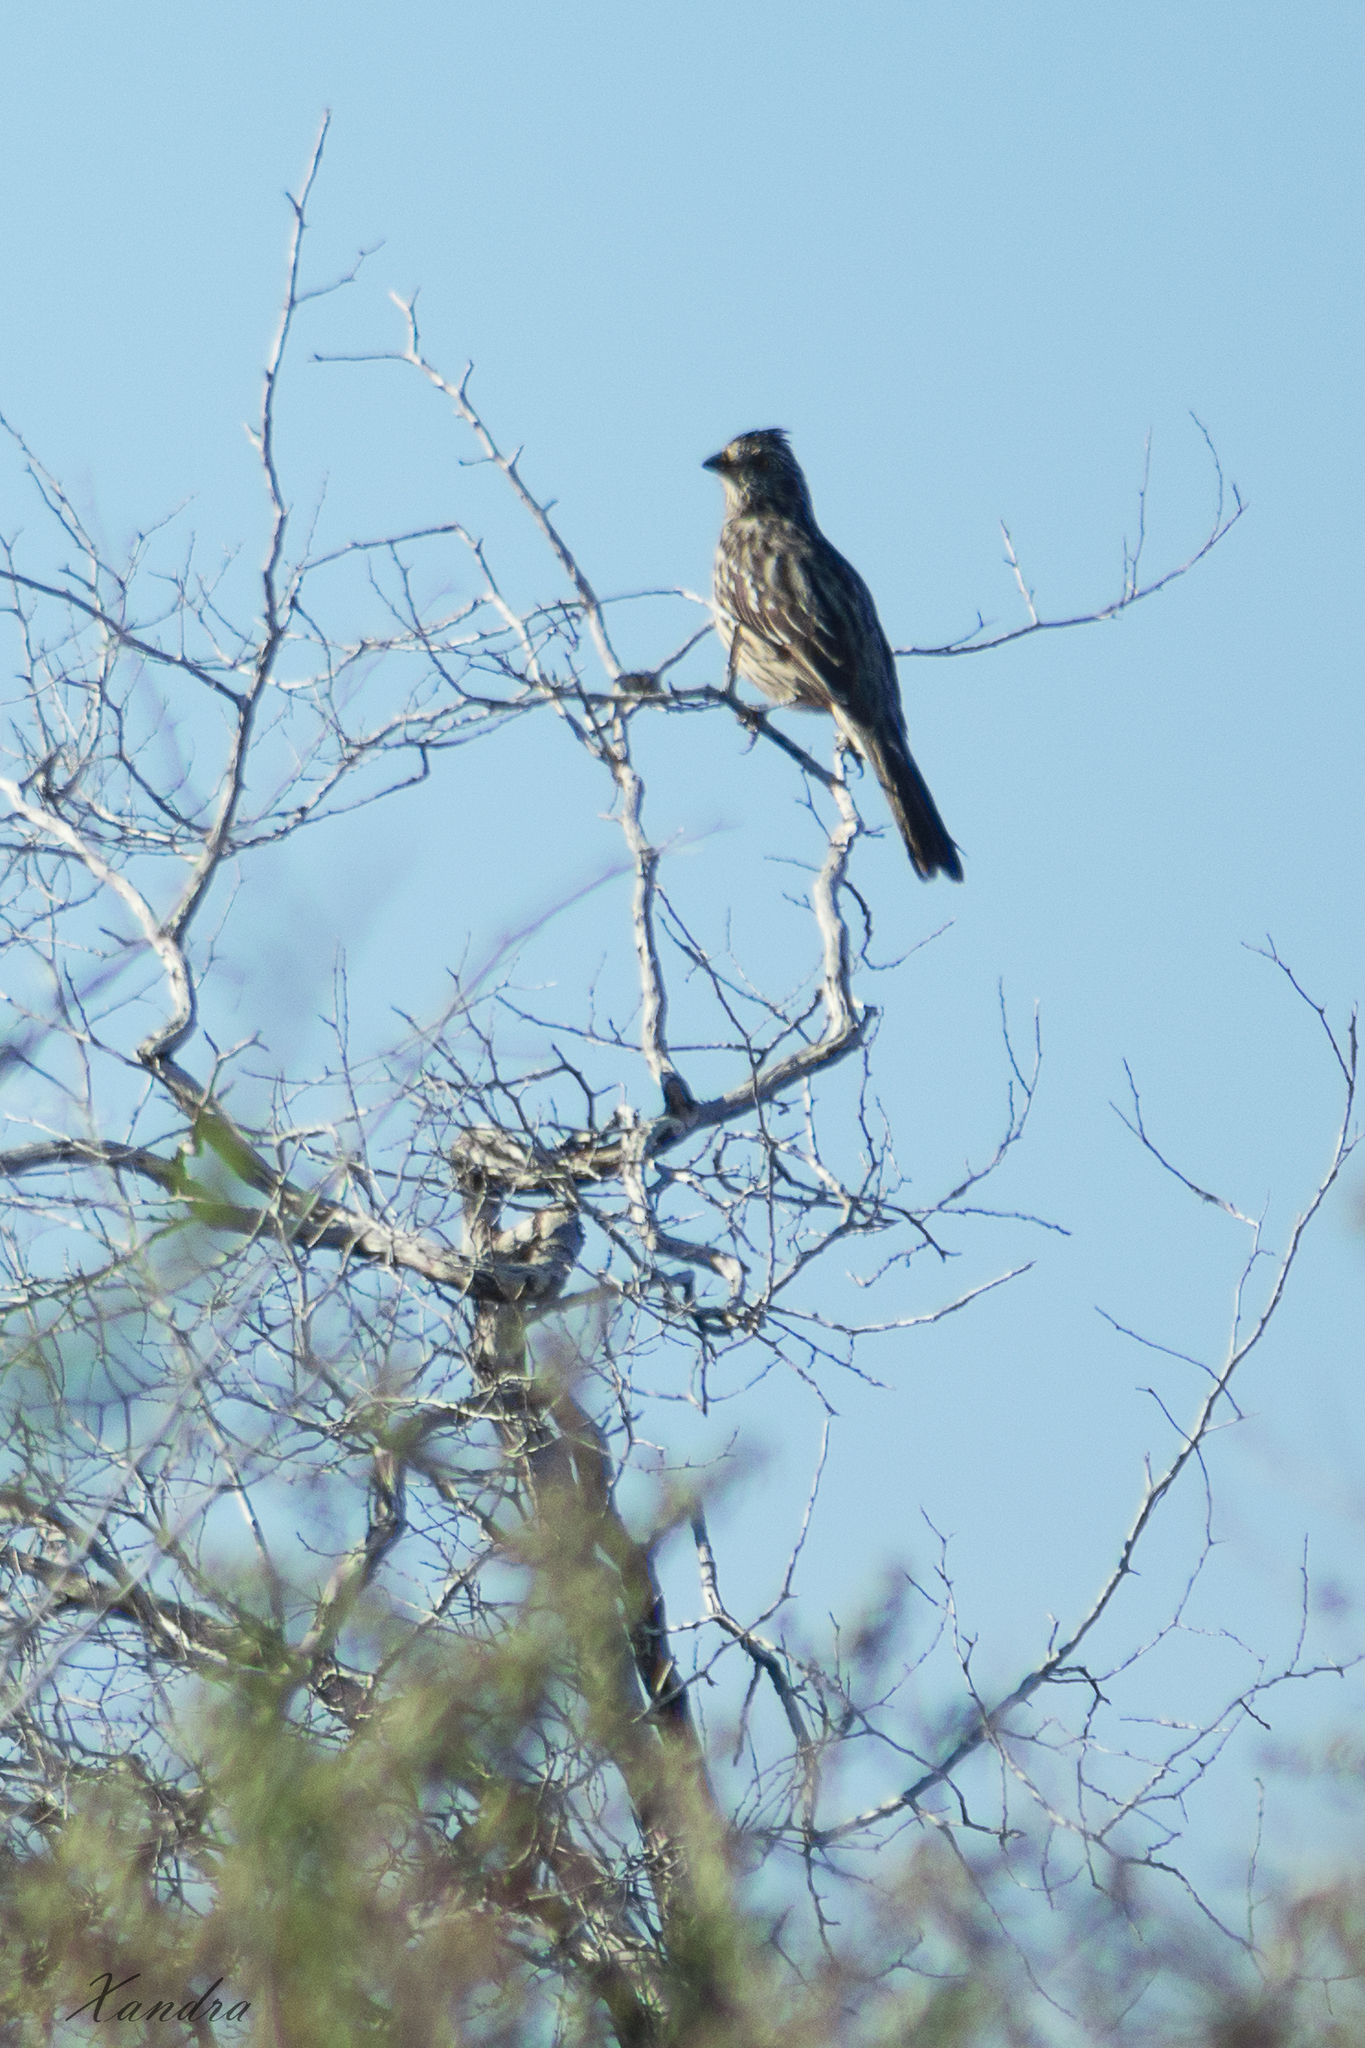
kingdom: Animalia
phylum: Chordata
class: Aves
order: Passeriformes
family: Cotingidae
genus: Phytotoma
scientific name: Phytotoma rutila
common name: White-tipped plantcutter
